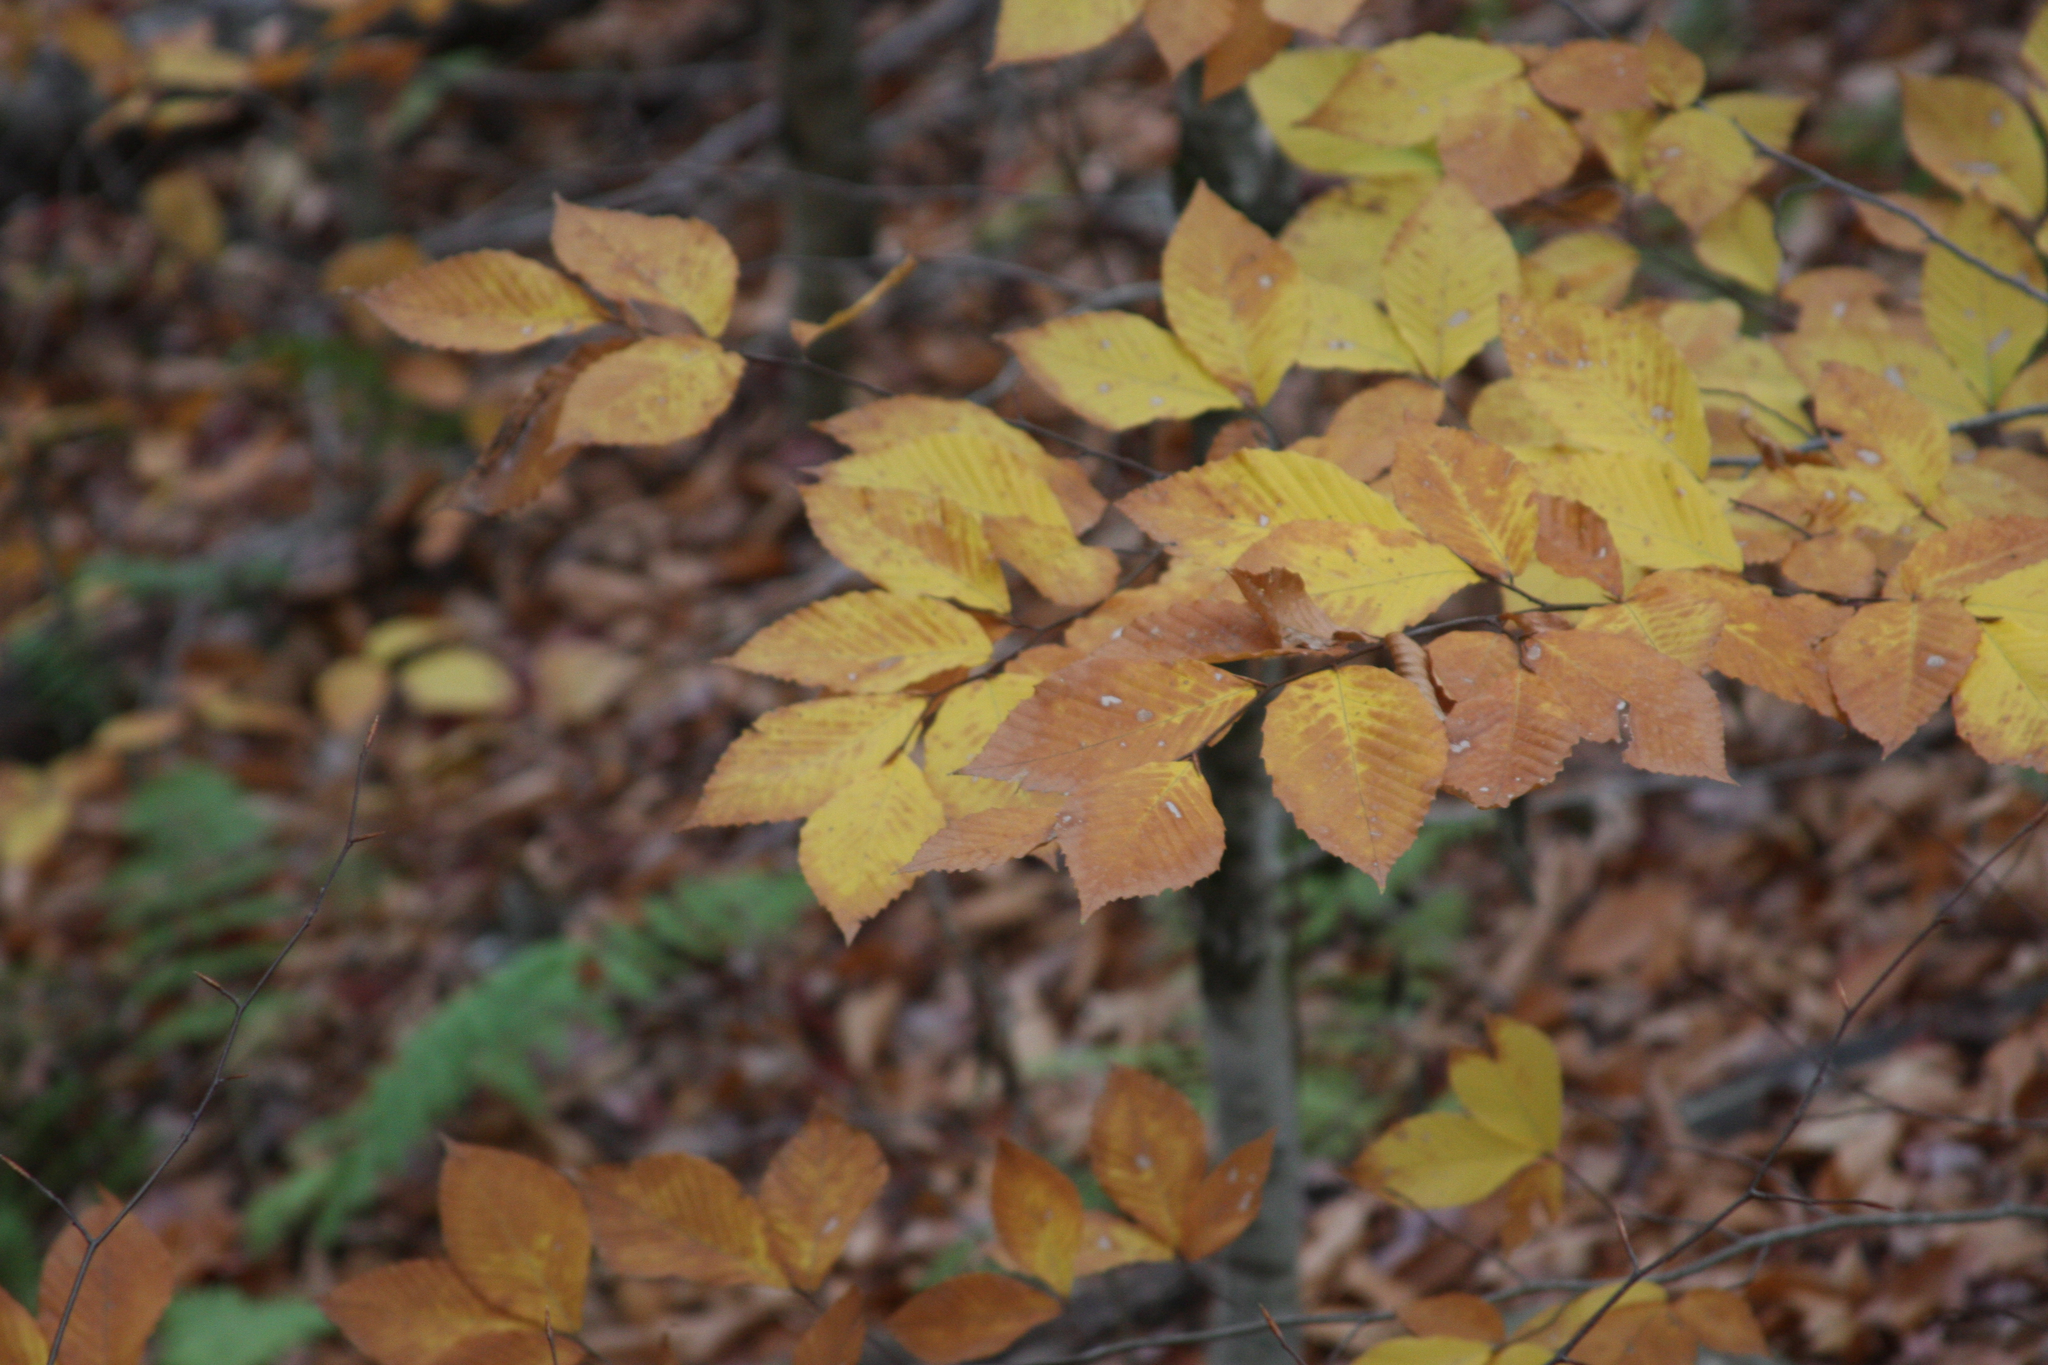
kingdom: Plantae
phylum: Tracheophyta
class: Magnoliopsida
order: Fagales
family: Fagaceae
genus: Fagus
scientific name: Fagus grandifolia
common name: American beech
